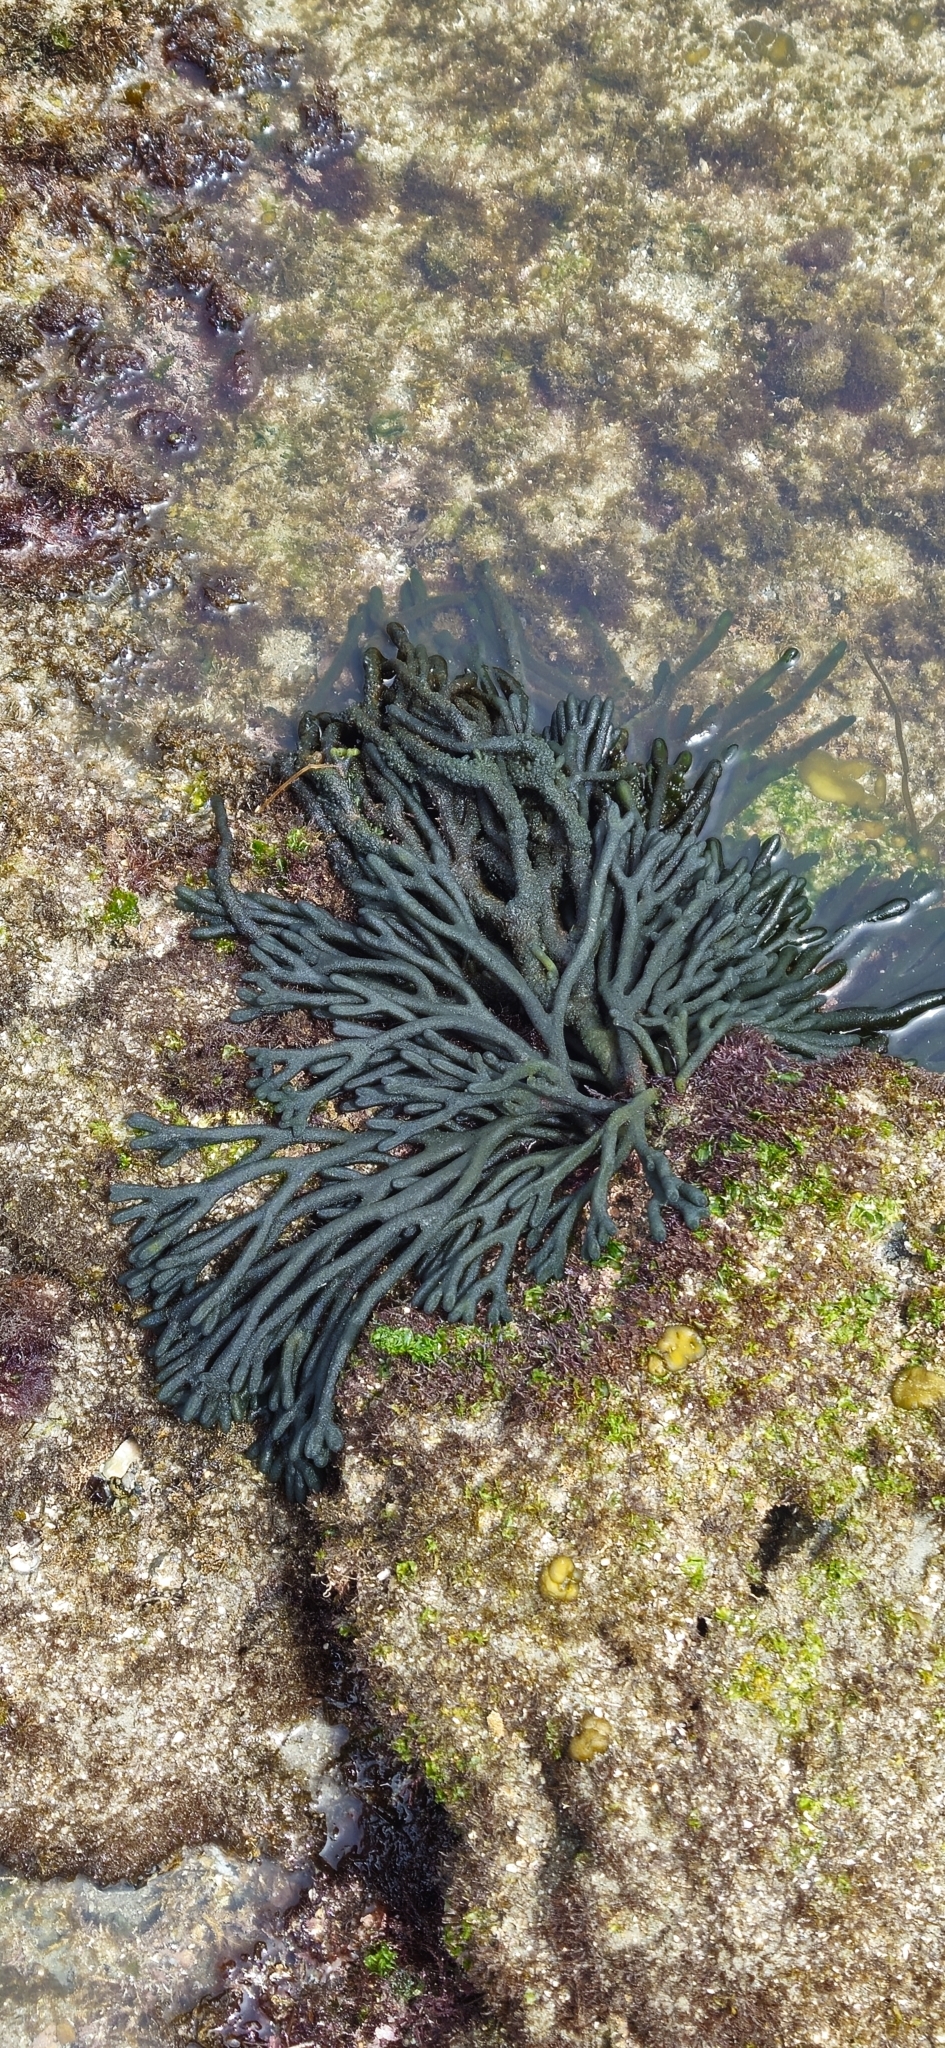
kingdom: Plantae
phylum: Chlorophyta
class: Ulvophyceae
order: Bryopsidales
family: Codiaceae
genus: Codium
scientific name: Codium fragile
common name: Dead man's fingers
